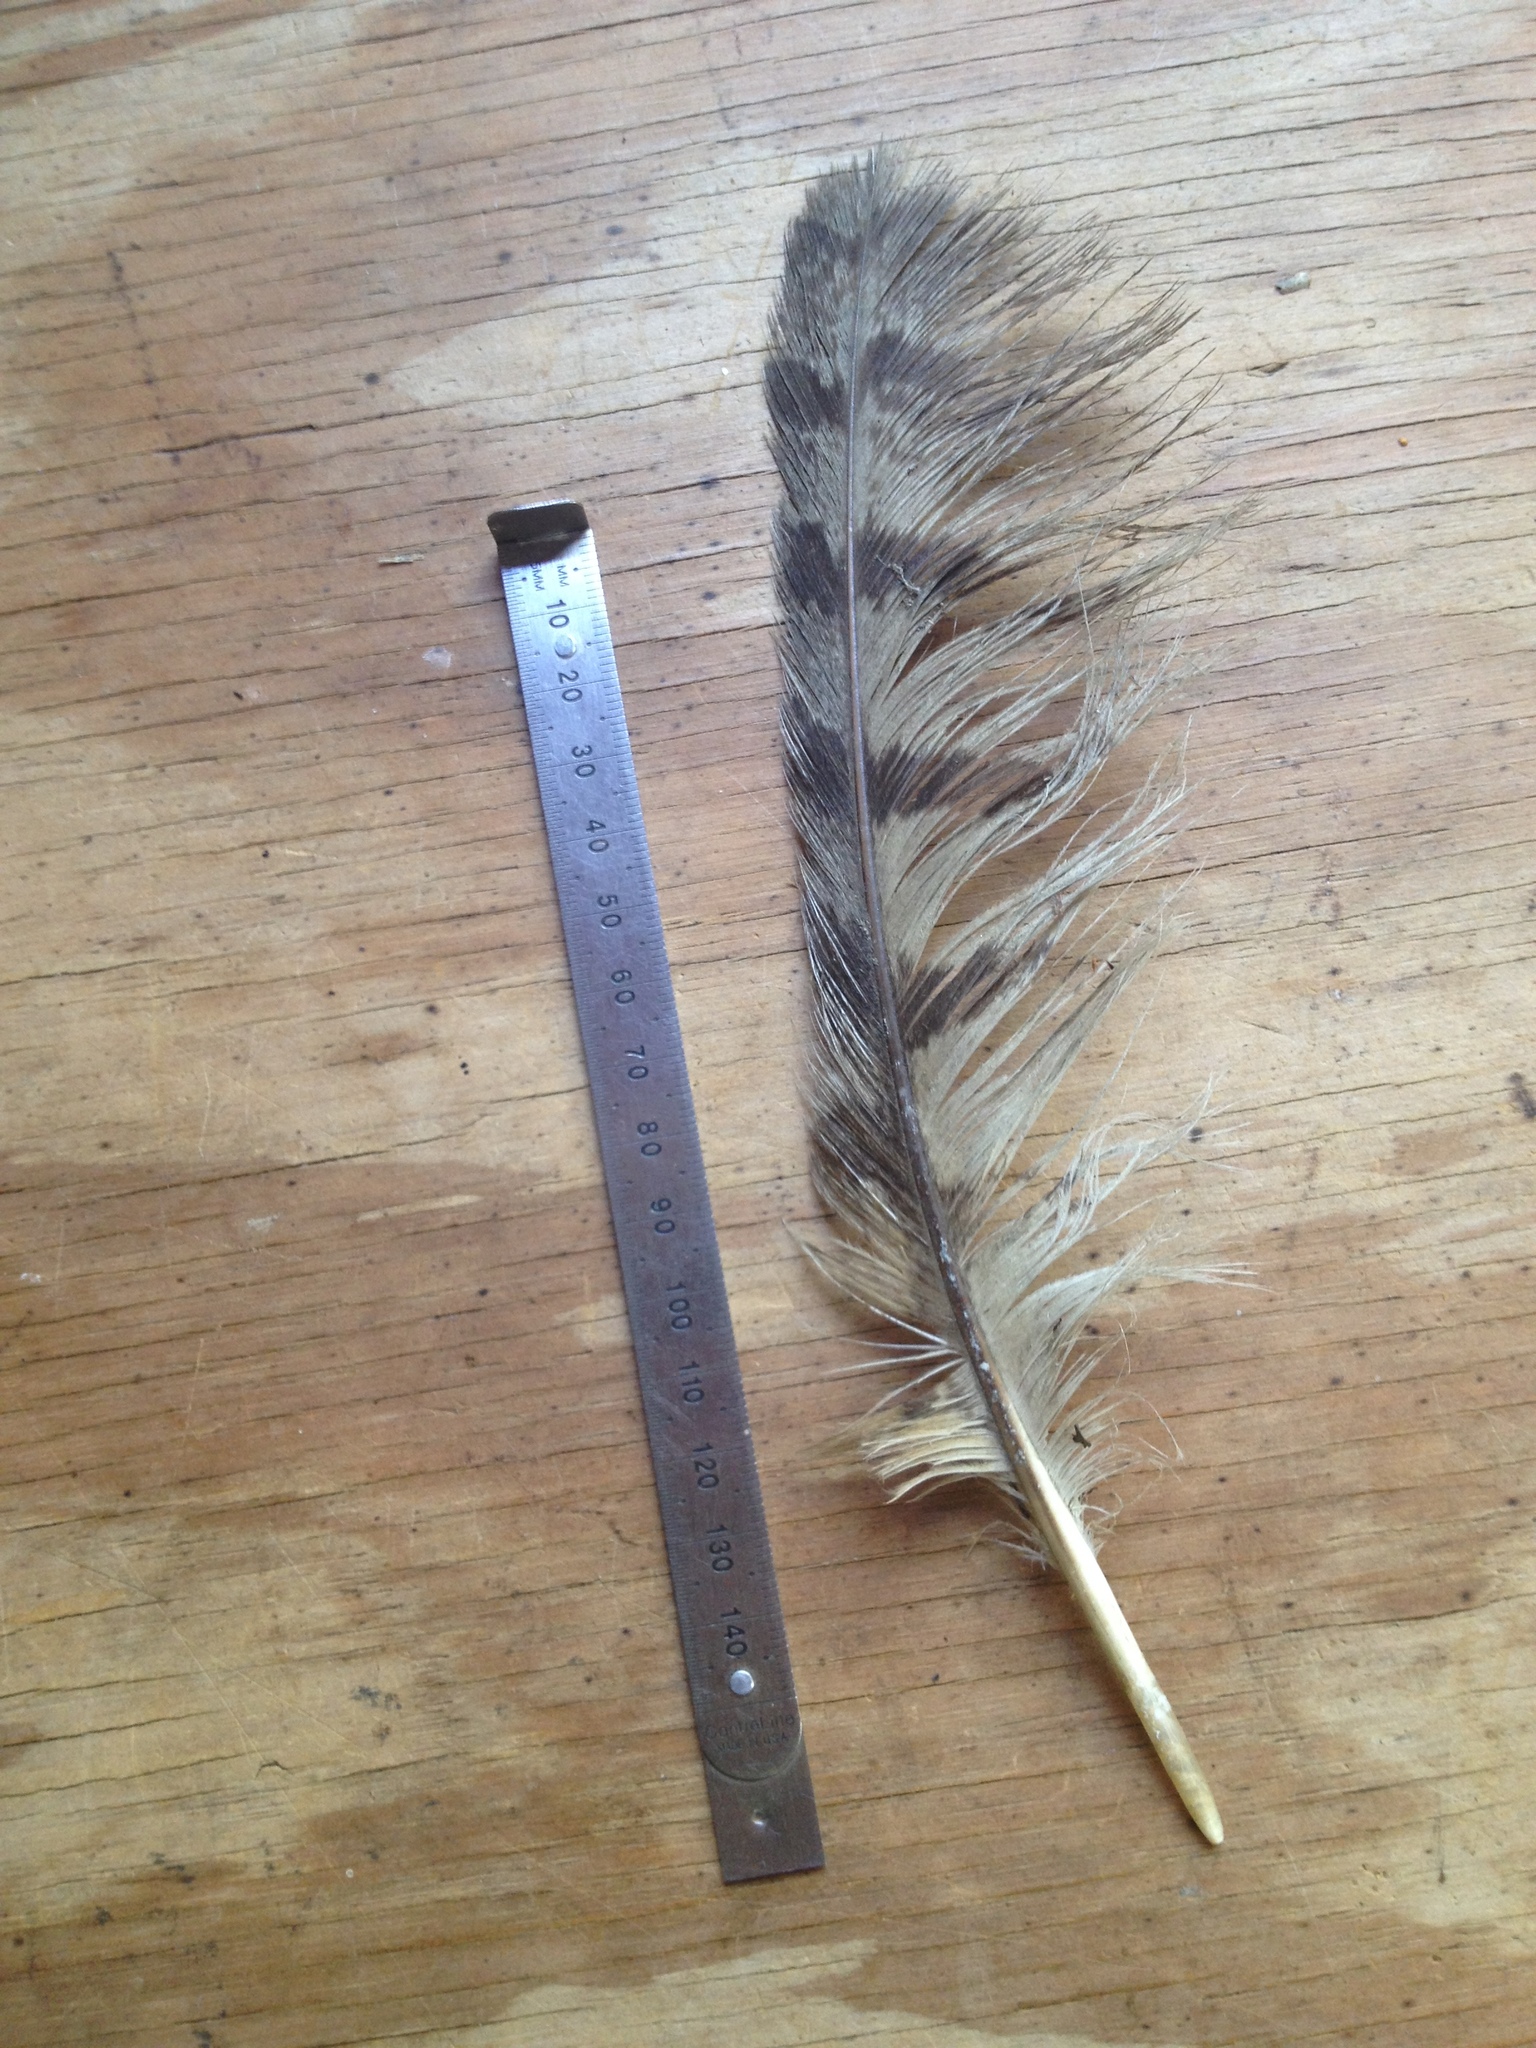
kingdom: Animalia
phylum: Chordata
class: Aves
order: Strigiformes
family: Strigidae
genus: Bubo
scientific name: Bubo virginianus
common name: Great horned owl
